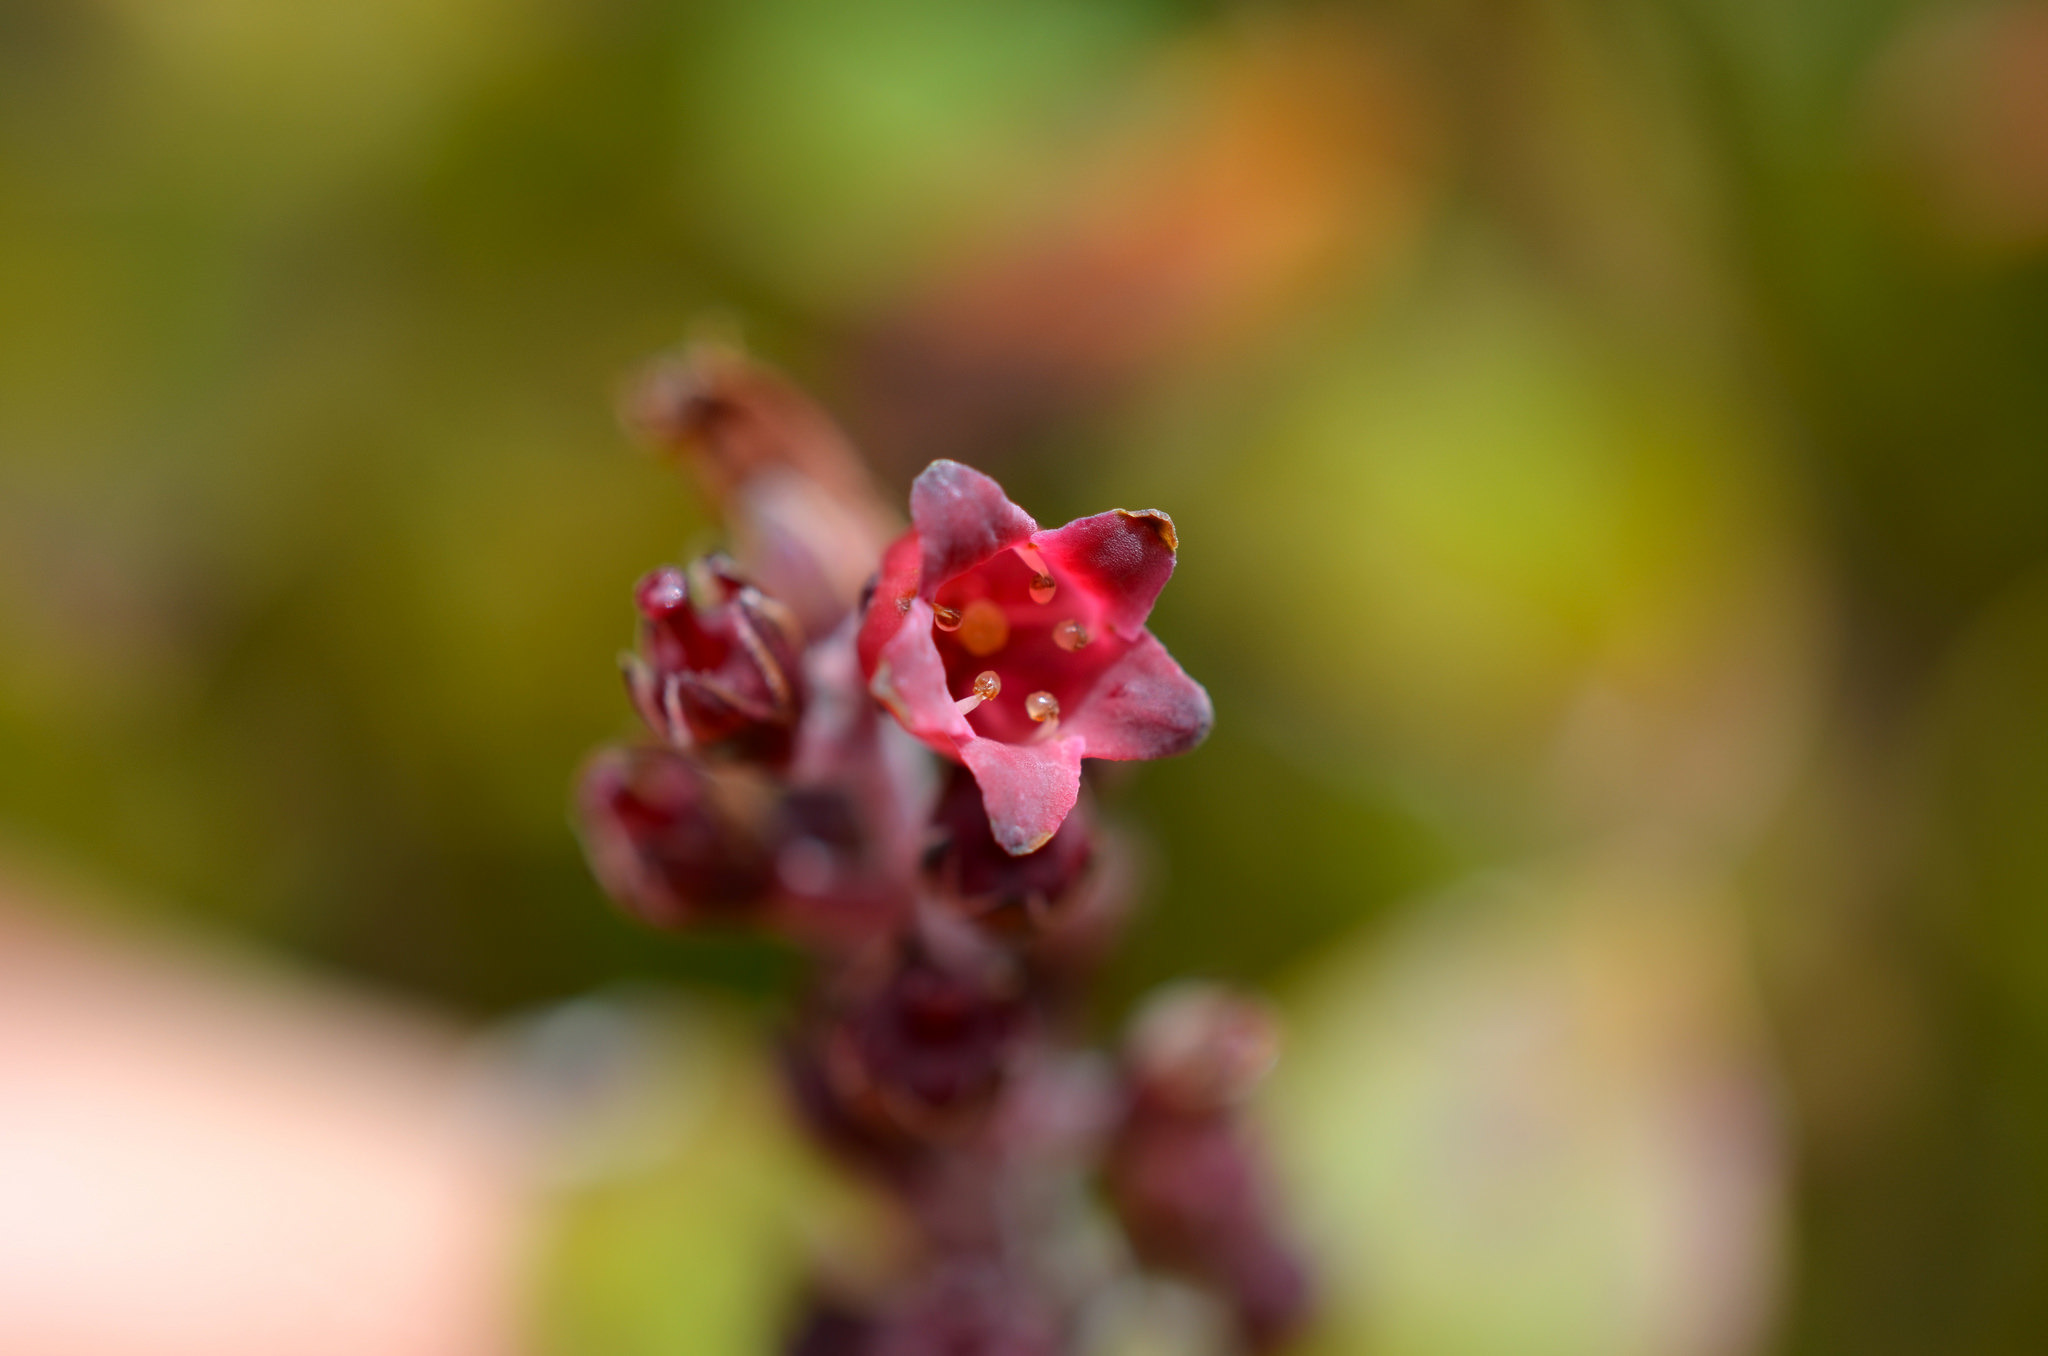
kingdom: Plantae
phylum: Tracheophyta
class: Magnoliopsida
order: Ericales
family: Ericaceae
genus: Archeria
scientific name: Archeria racemosa
